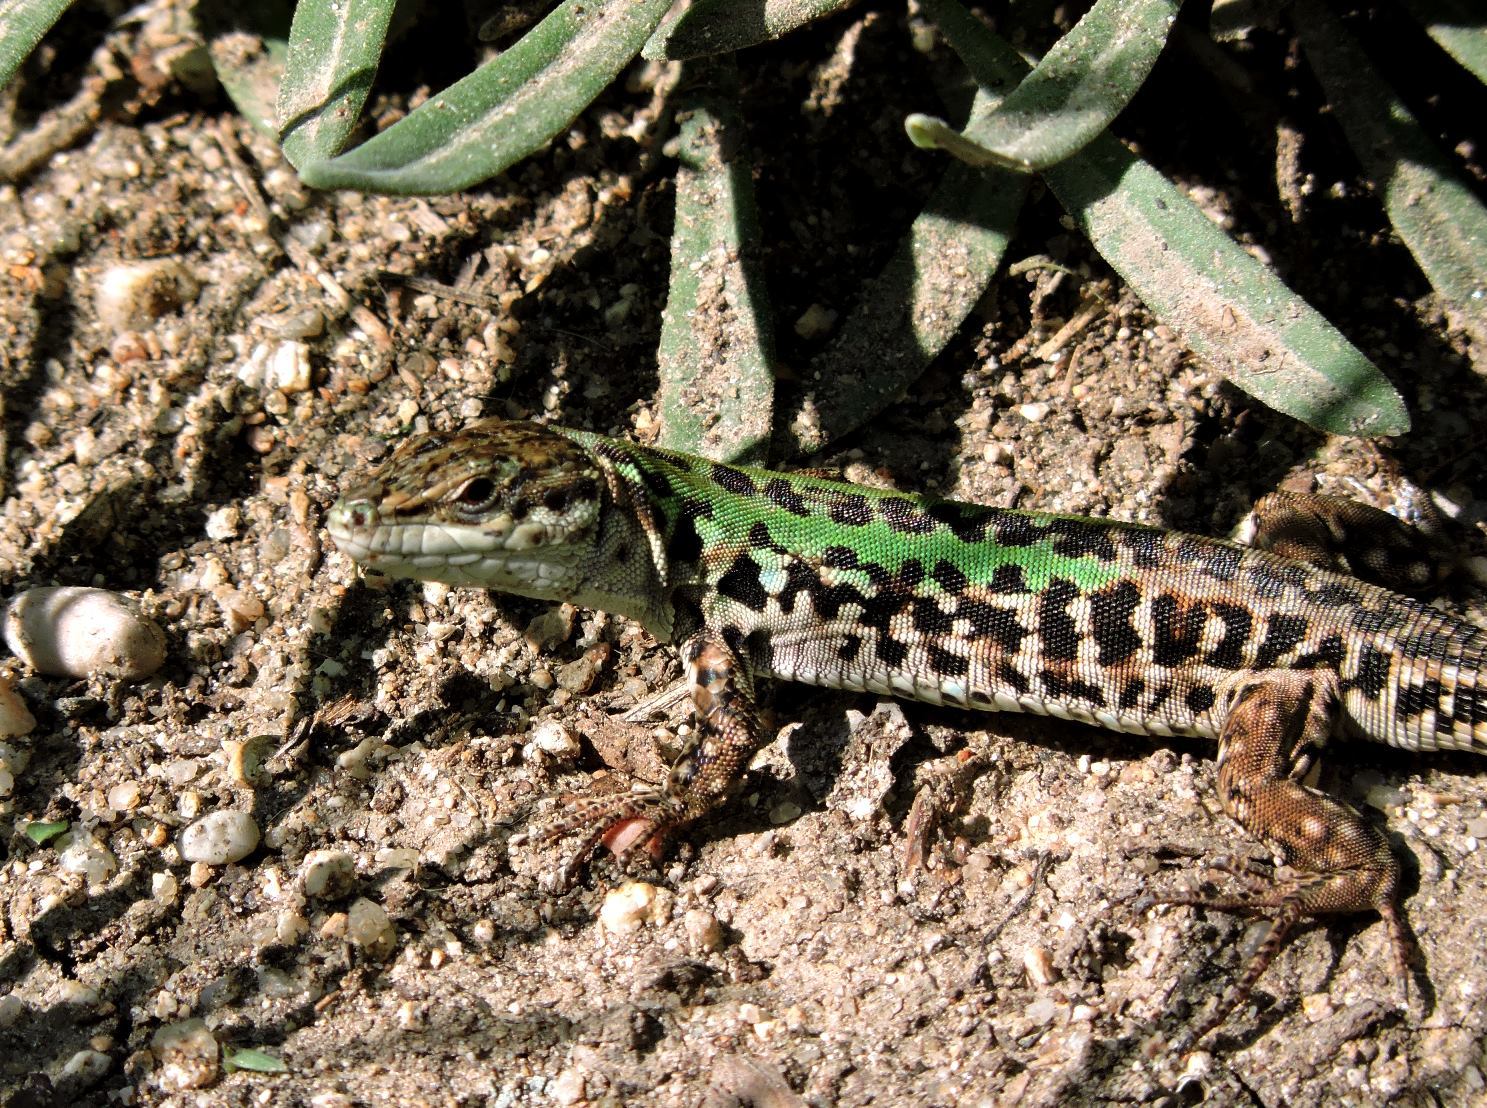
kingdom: Animalia
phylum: Chordata
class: Squamata
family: Lacertidae
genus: Podarcis
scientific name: Podarcis siculus
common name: Italian wall lizard
